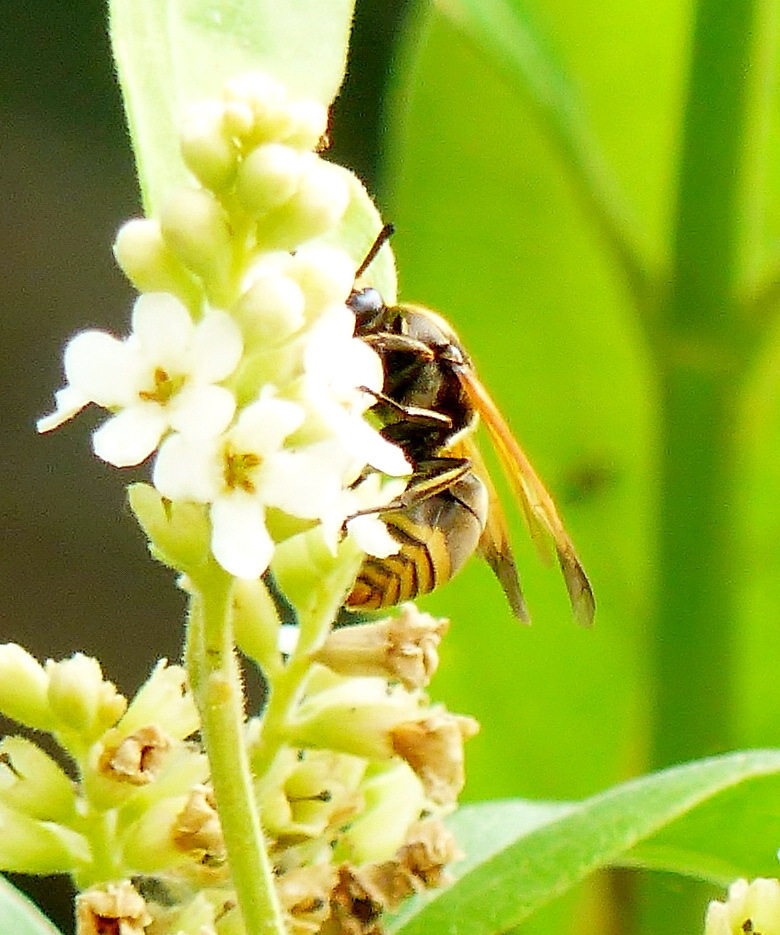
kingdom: Animalia
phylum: Arthropoda
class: Insecta
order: Hymenoptera
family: Eumenidae
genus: Pachodynerus
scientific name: Pachodynerus
